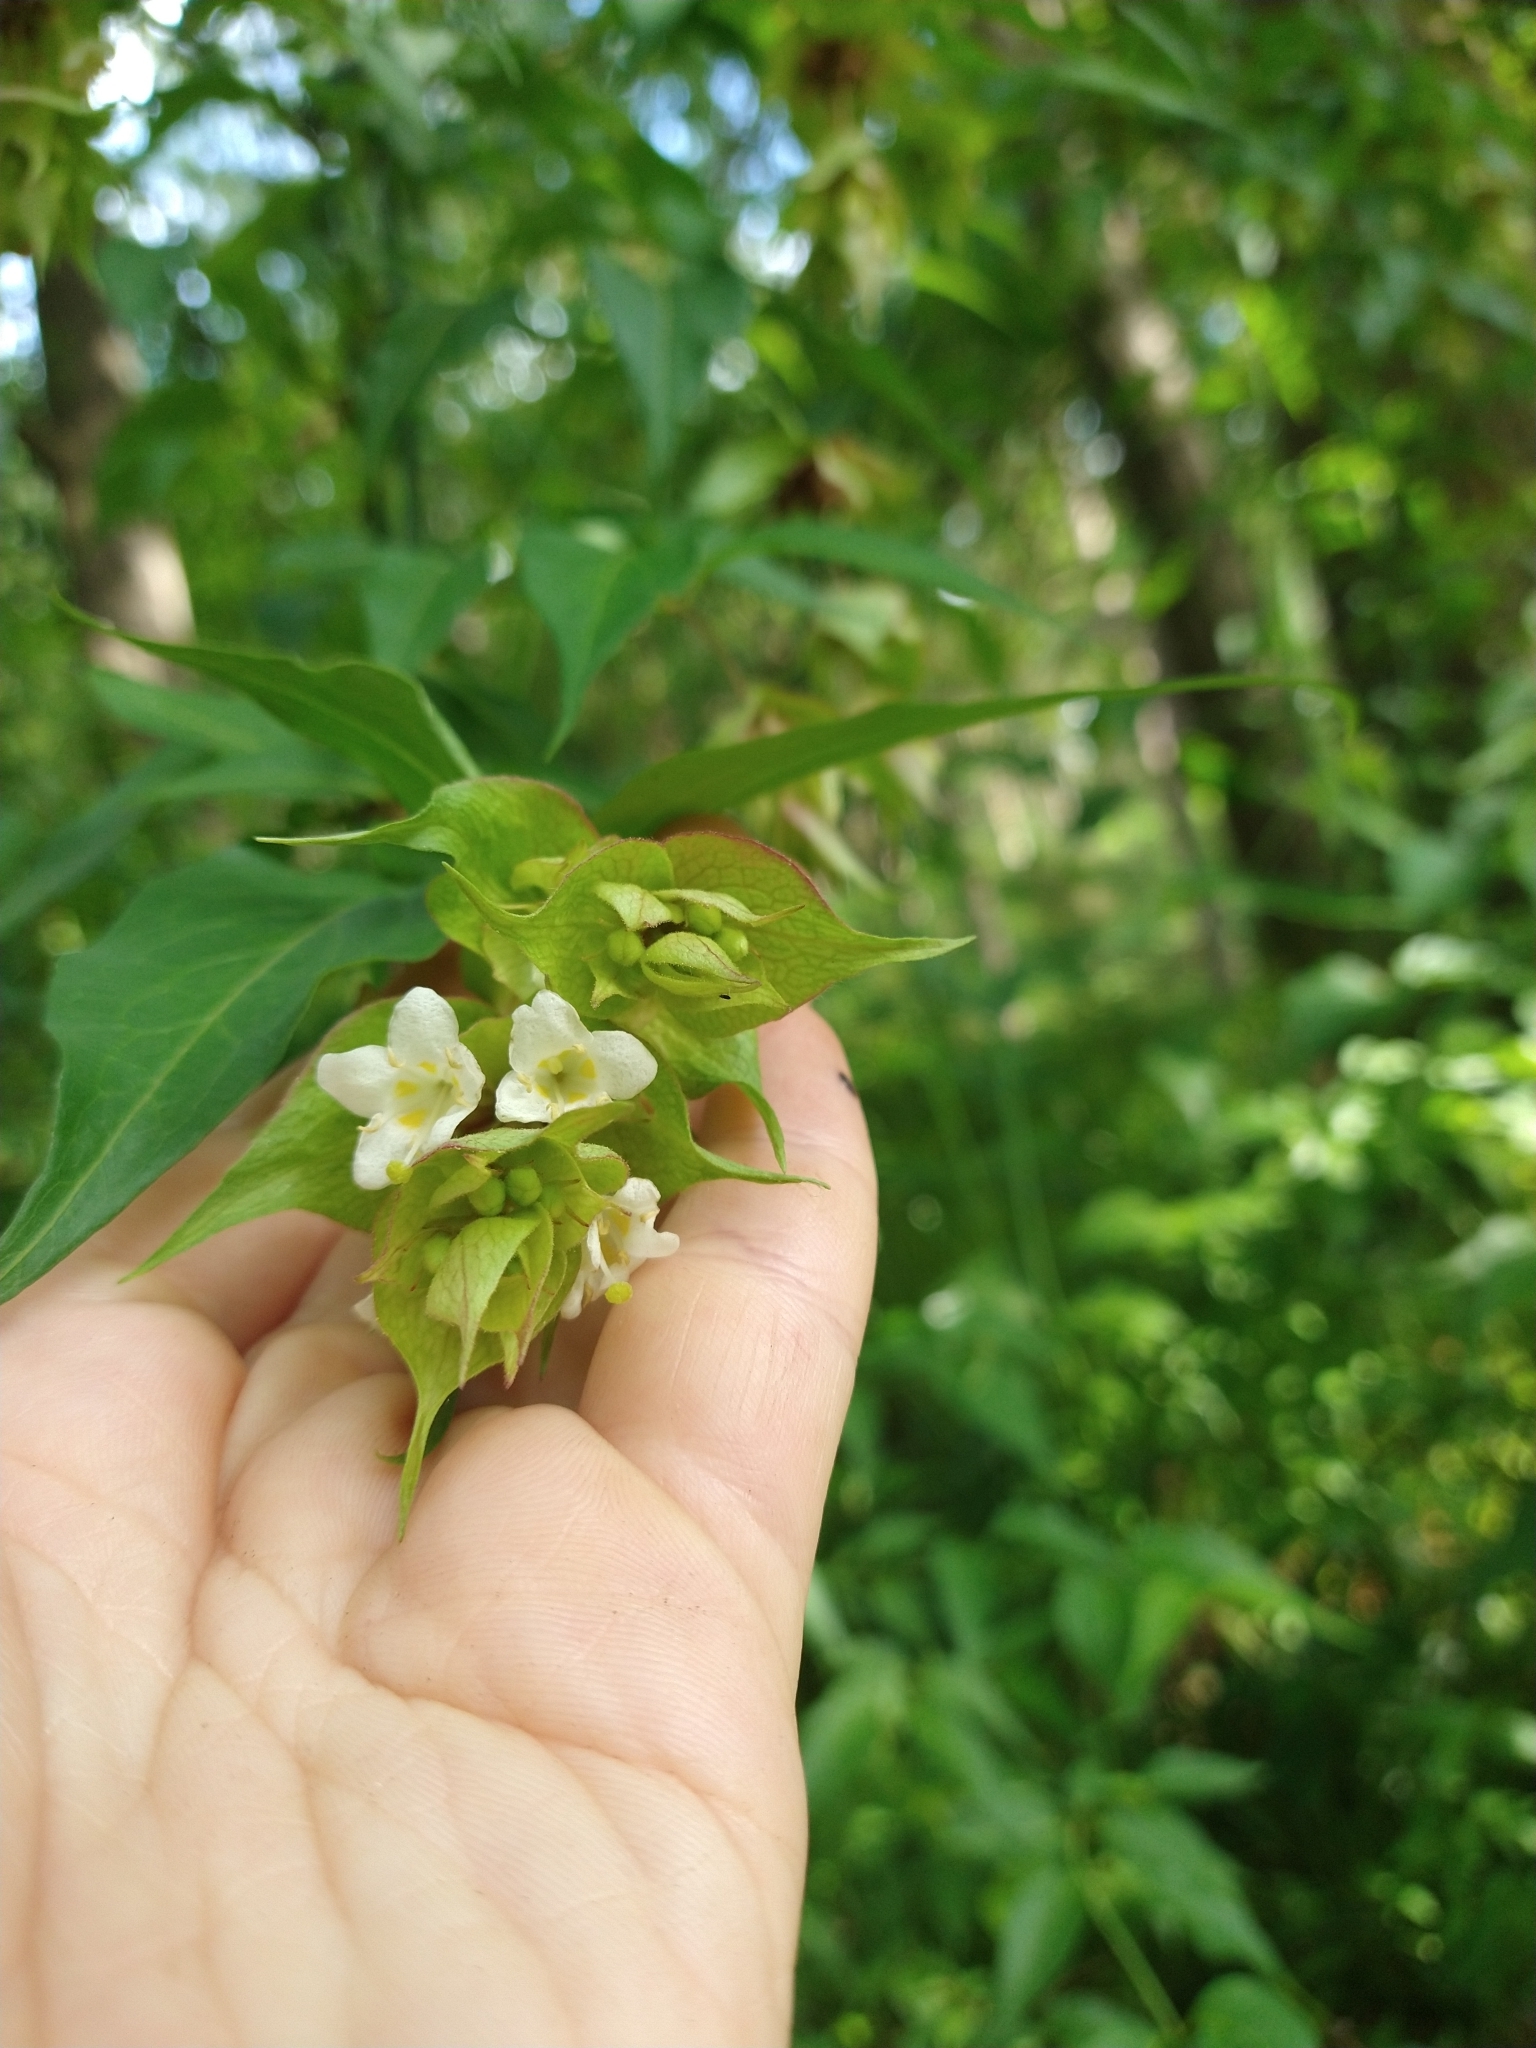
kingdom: Plantae
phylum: Tracheophyta
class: Magnoliopsida
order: Dipsacales
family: Caprifoliaceae
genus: Leycesteria
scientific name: Leycesteria formosa
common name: Himalayan honeysuckle
